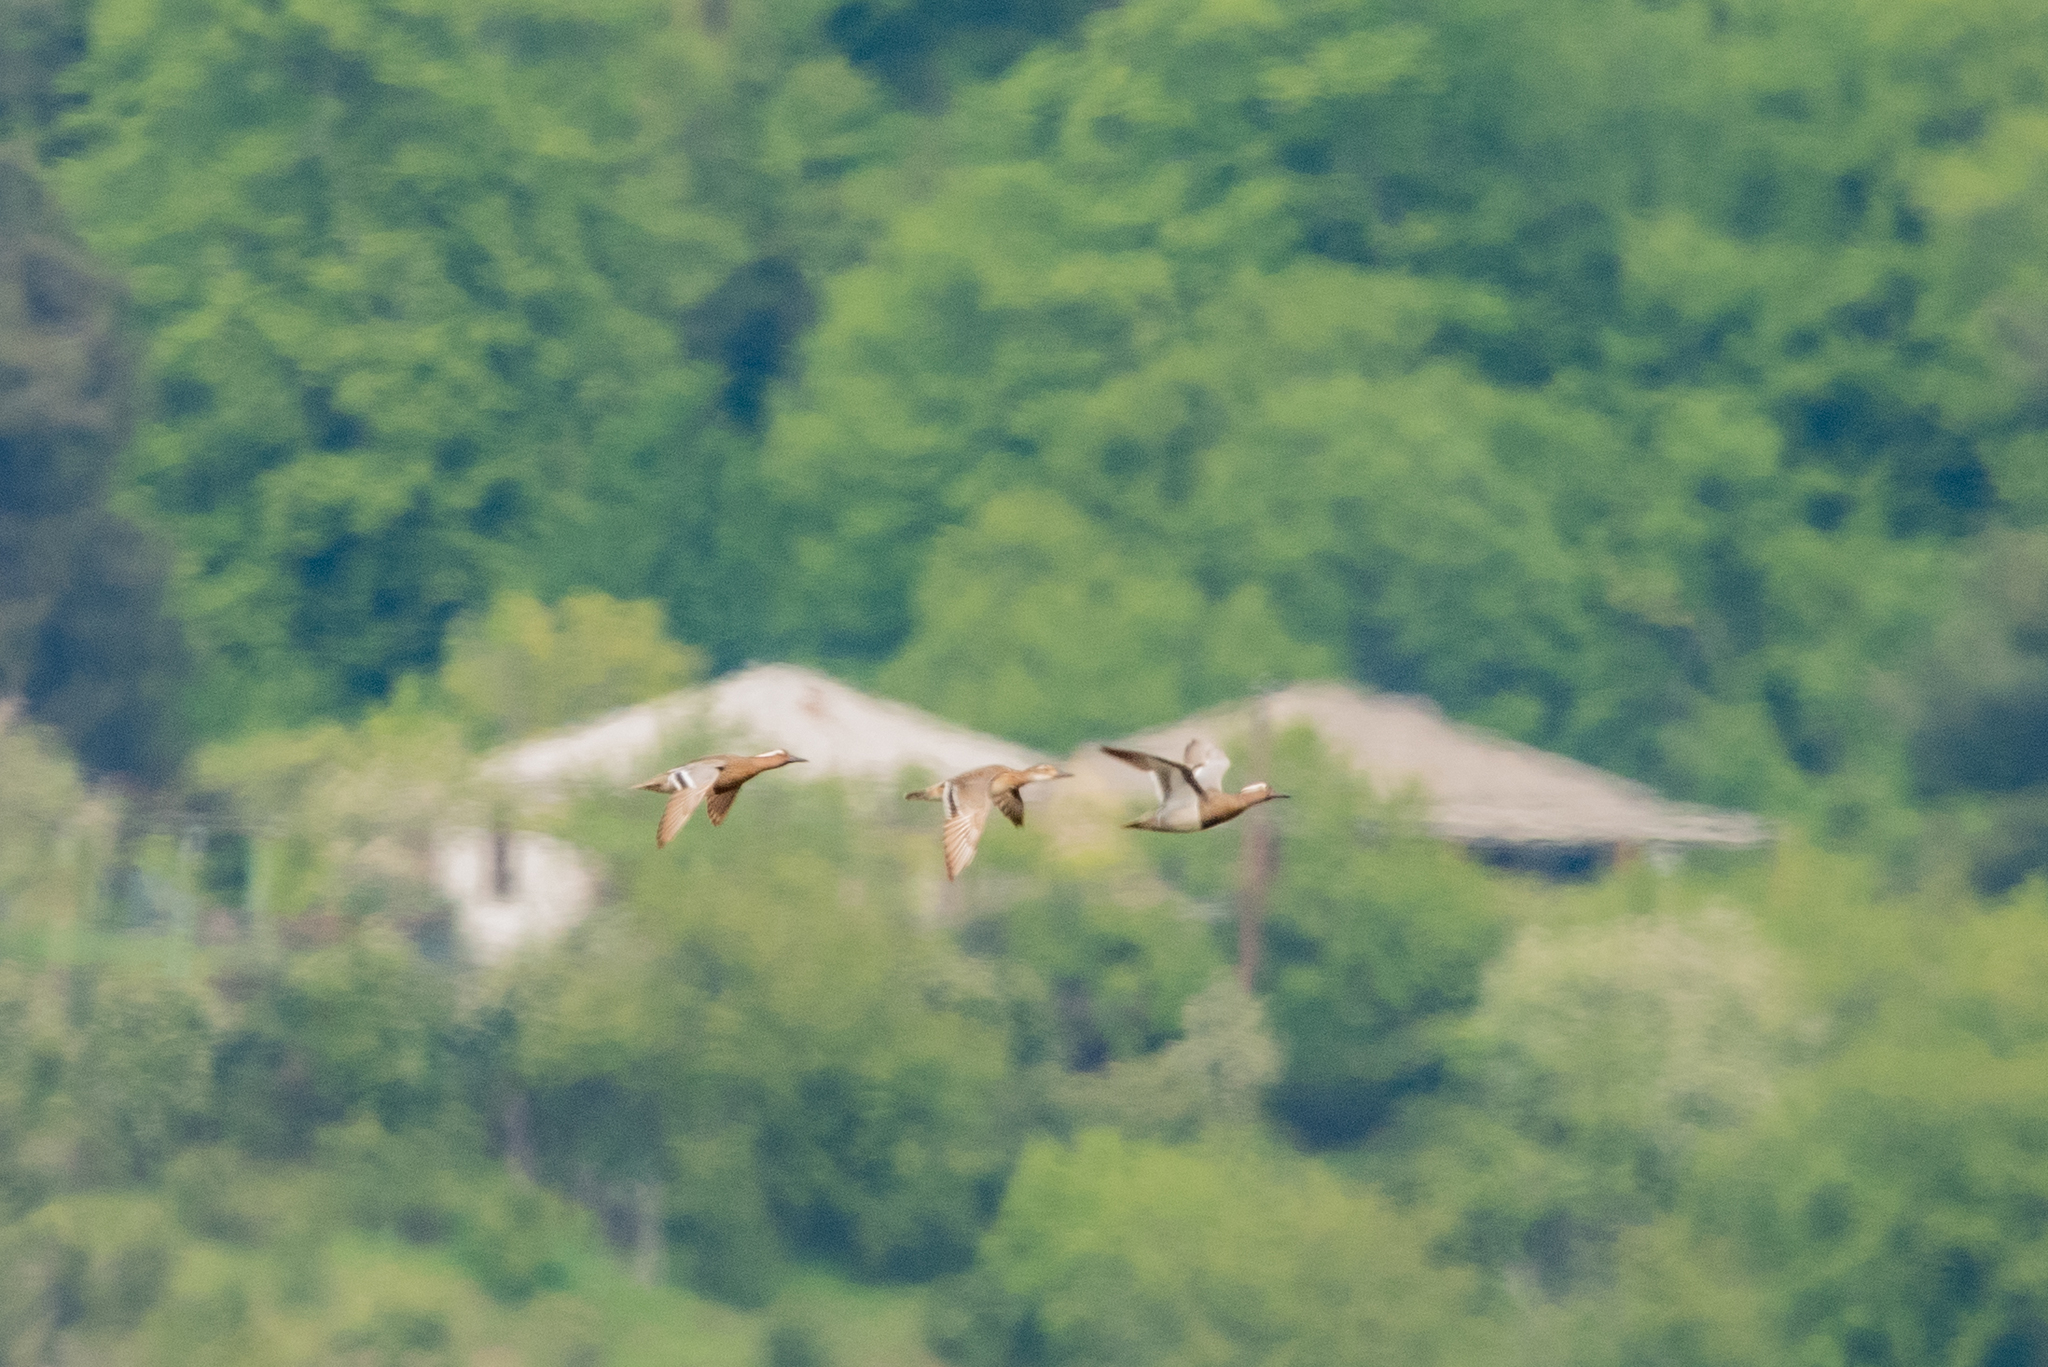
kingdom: Animalia
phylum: Chordata
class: Aves
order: Anseriformes
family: Anatidae
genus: Spatula
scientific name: Spatula querquedula
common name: Garganey
